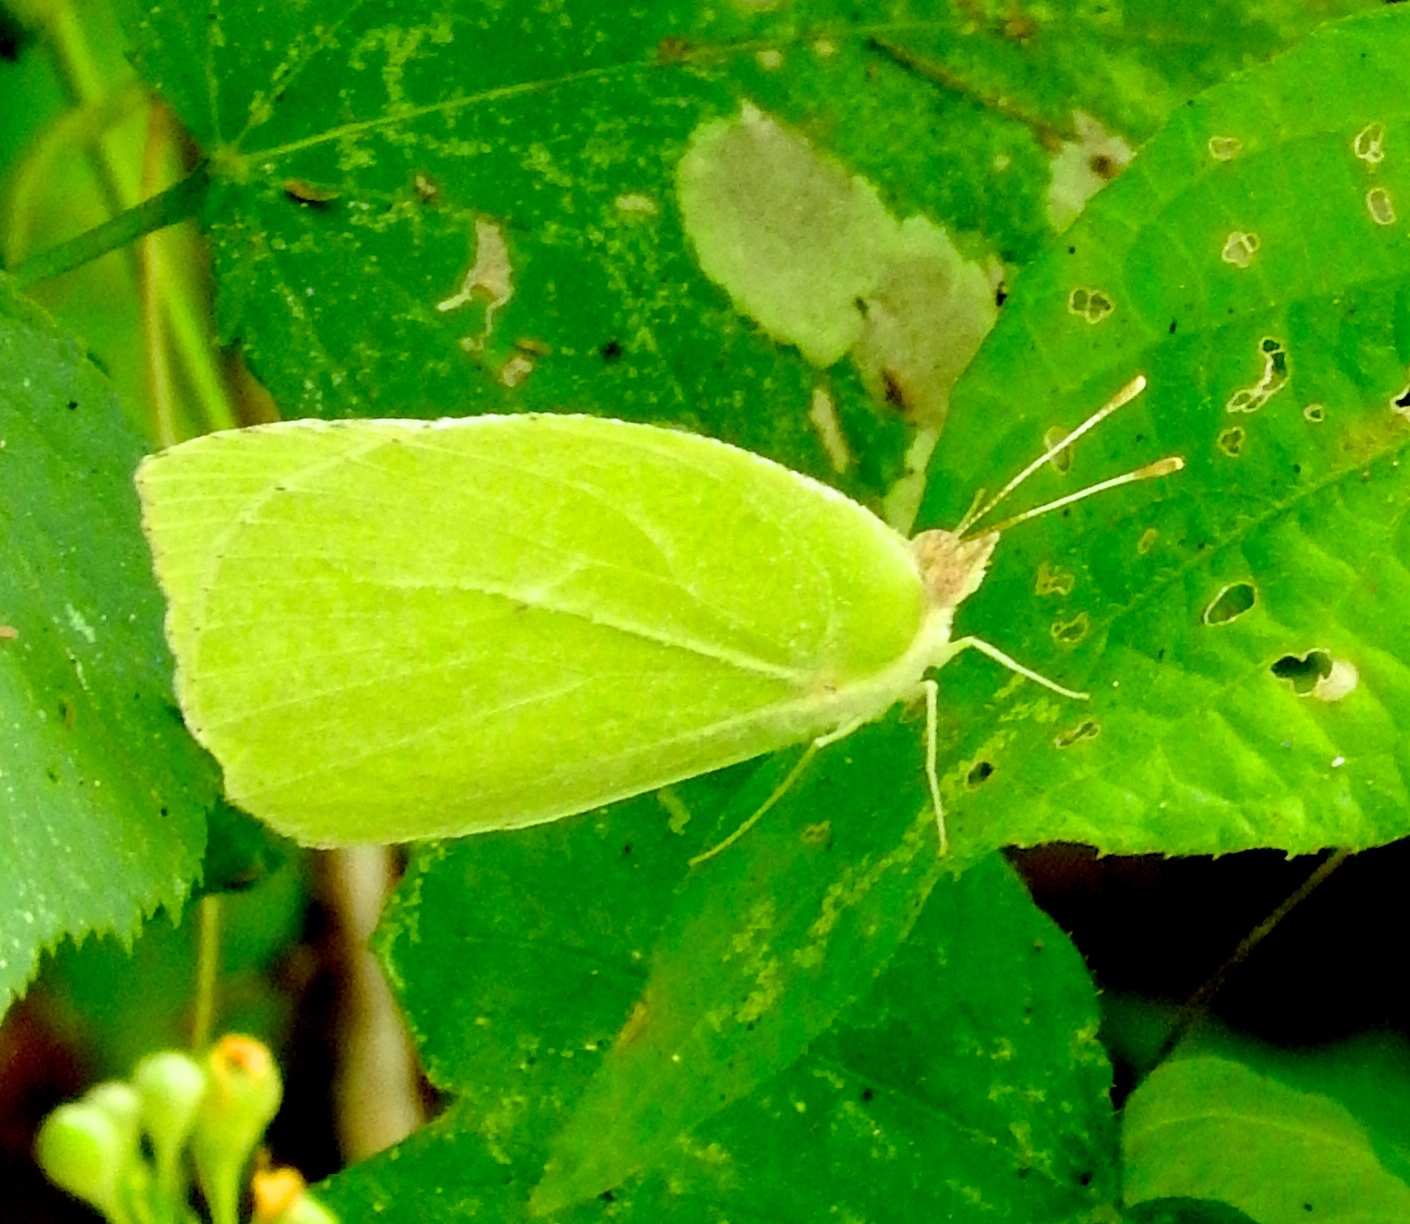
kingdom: Animalia
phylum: Arthropoda
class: Insecta
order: Lepidoptera
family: Pieridae
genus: Kricogonia
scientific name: Kricogonia lyside
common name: Guayacan sulphur,
